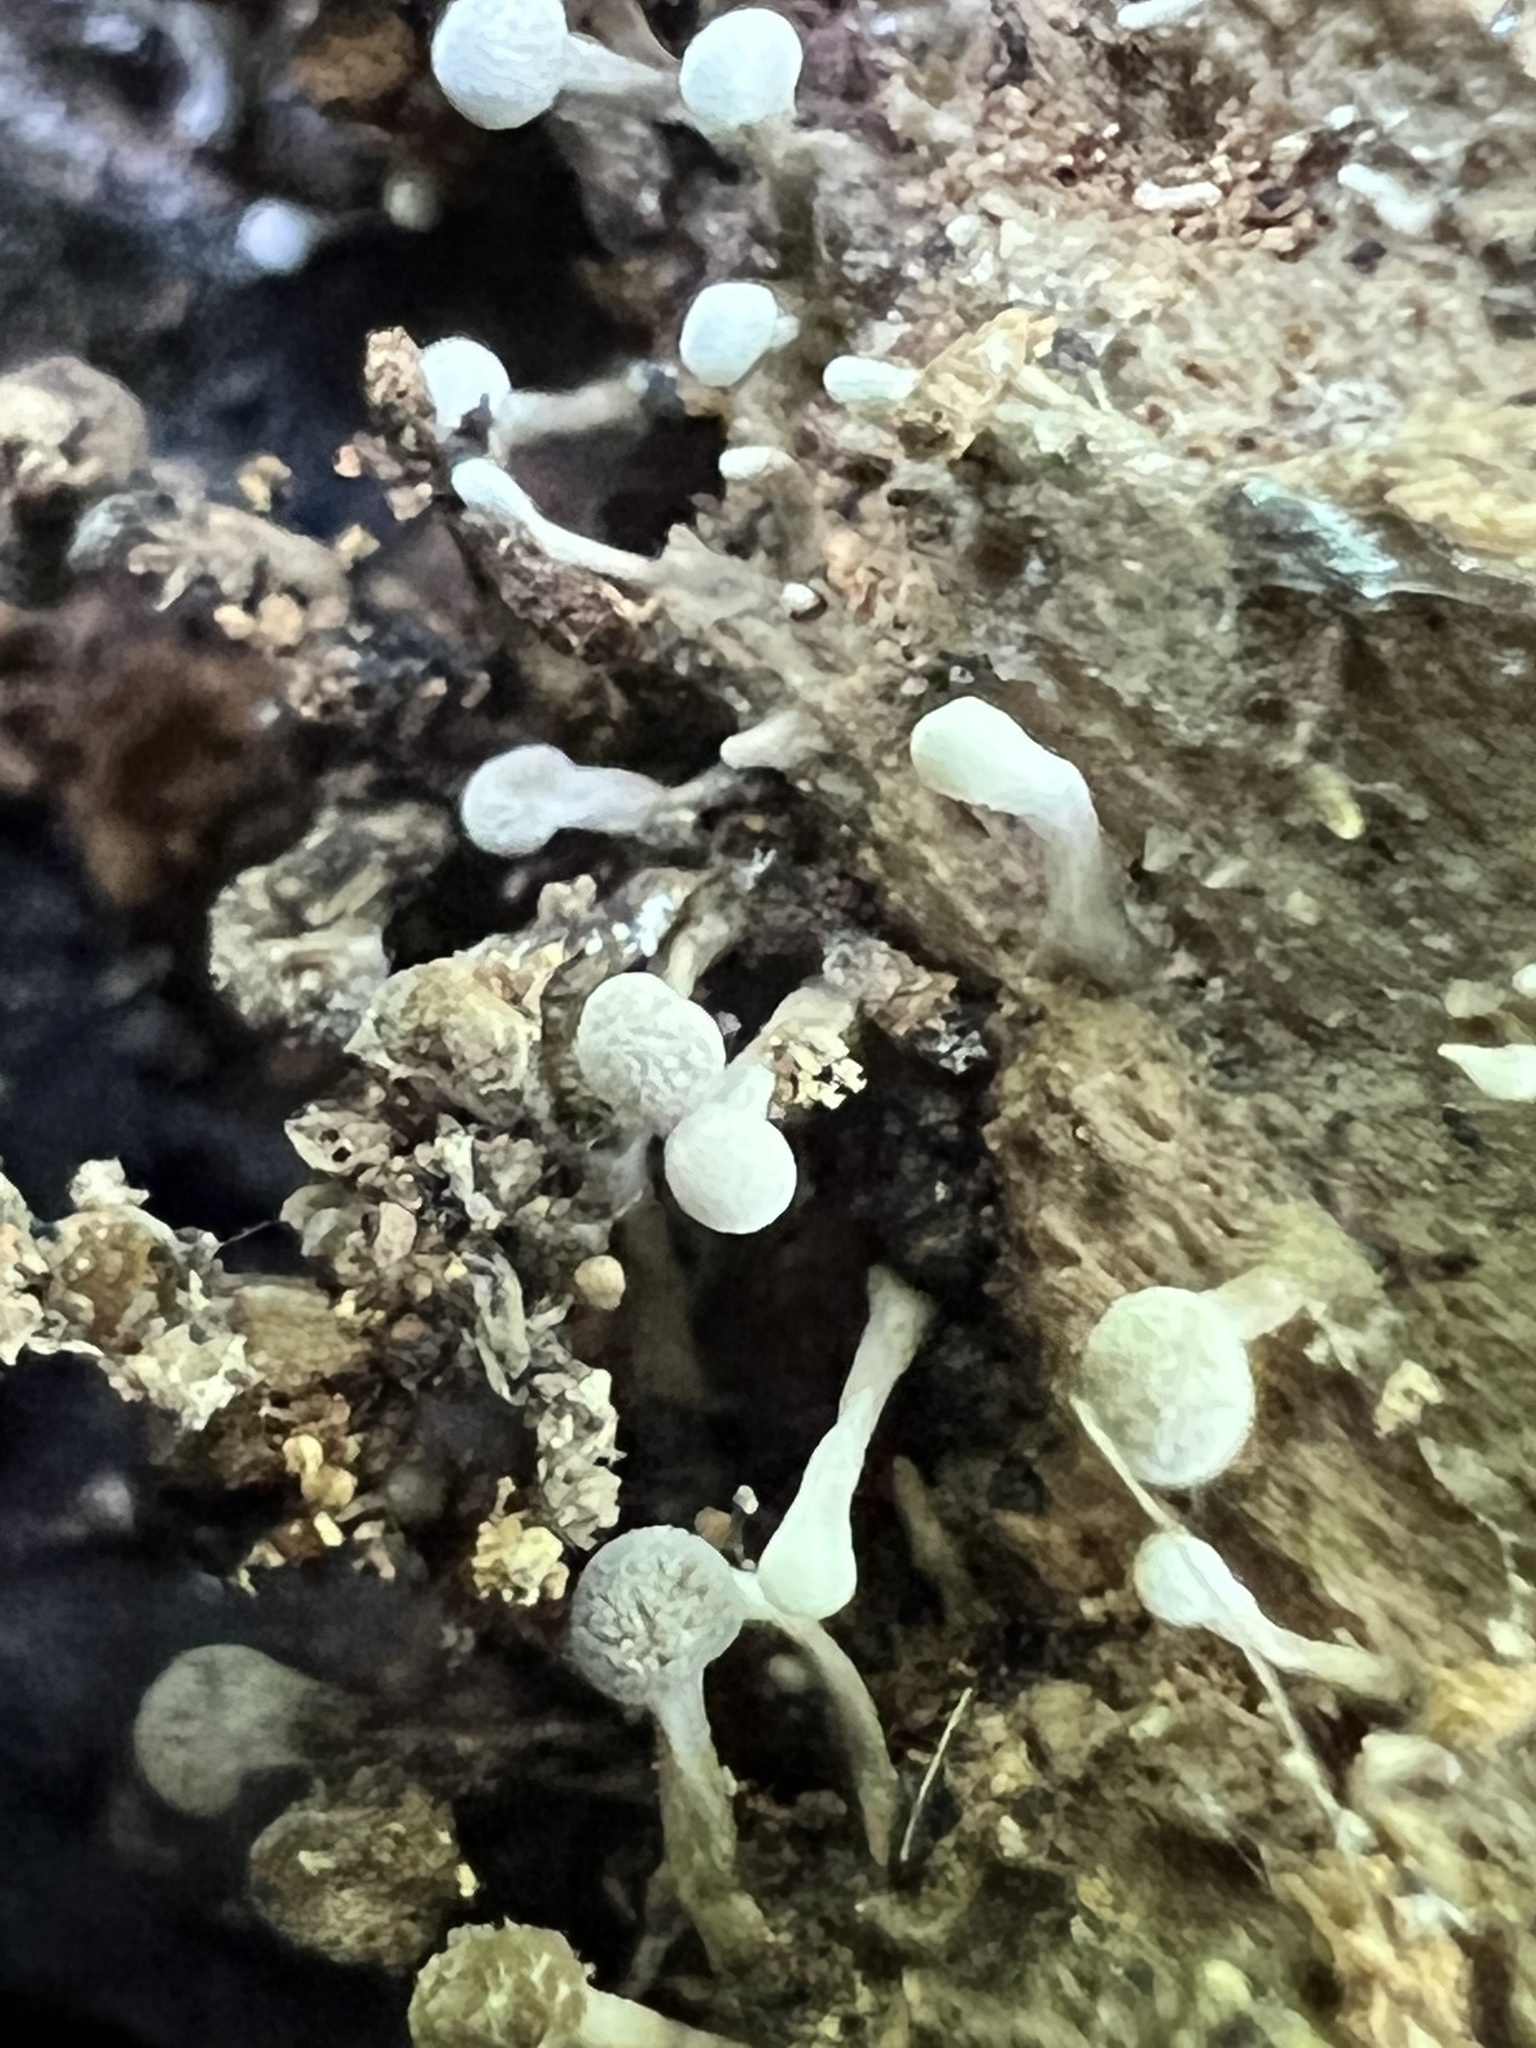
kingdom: Fungi
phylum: Basidiomycota
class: Atractiellomycetes
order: Atractiellales
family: Phleogenaceae
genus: Phleogena
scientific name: Phleogena faginea
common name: Fenugreek stalkball
